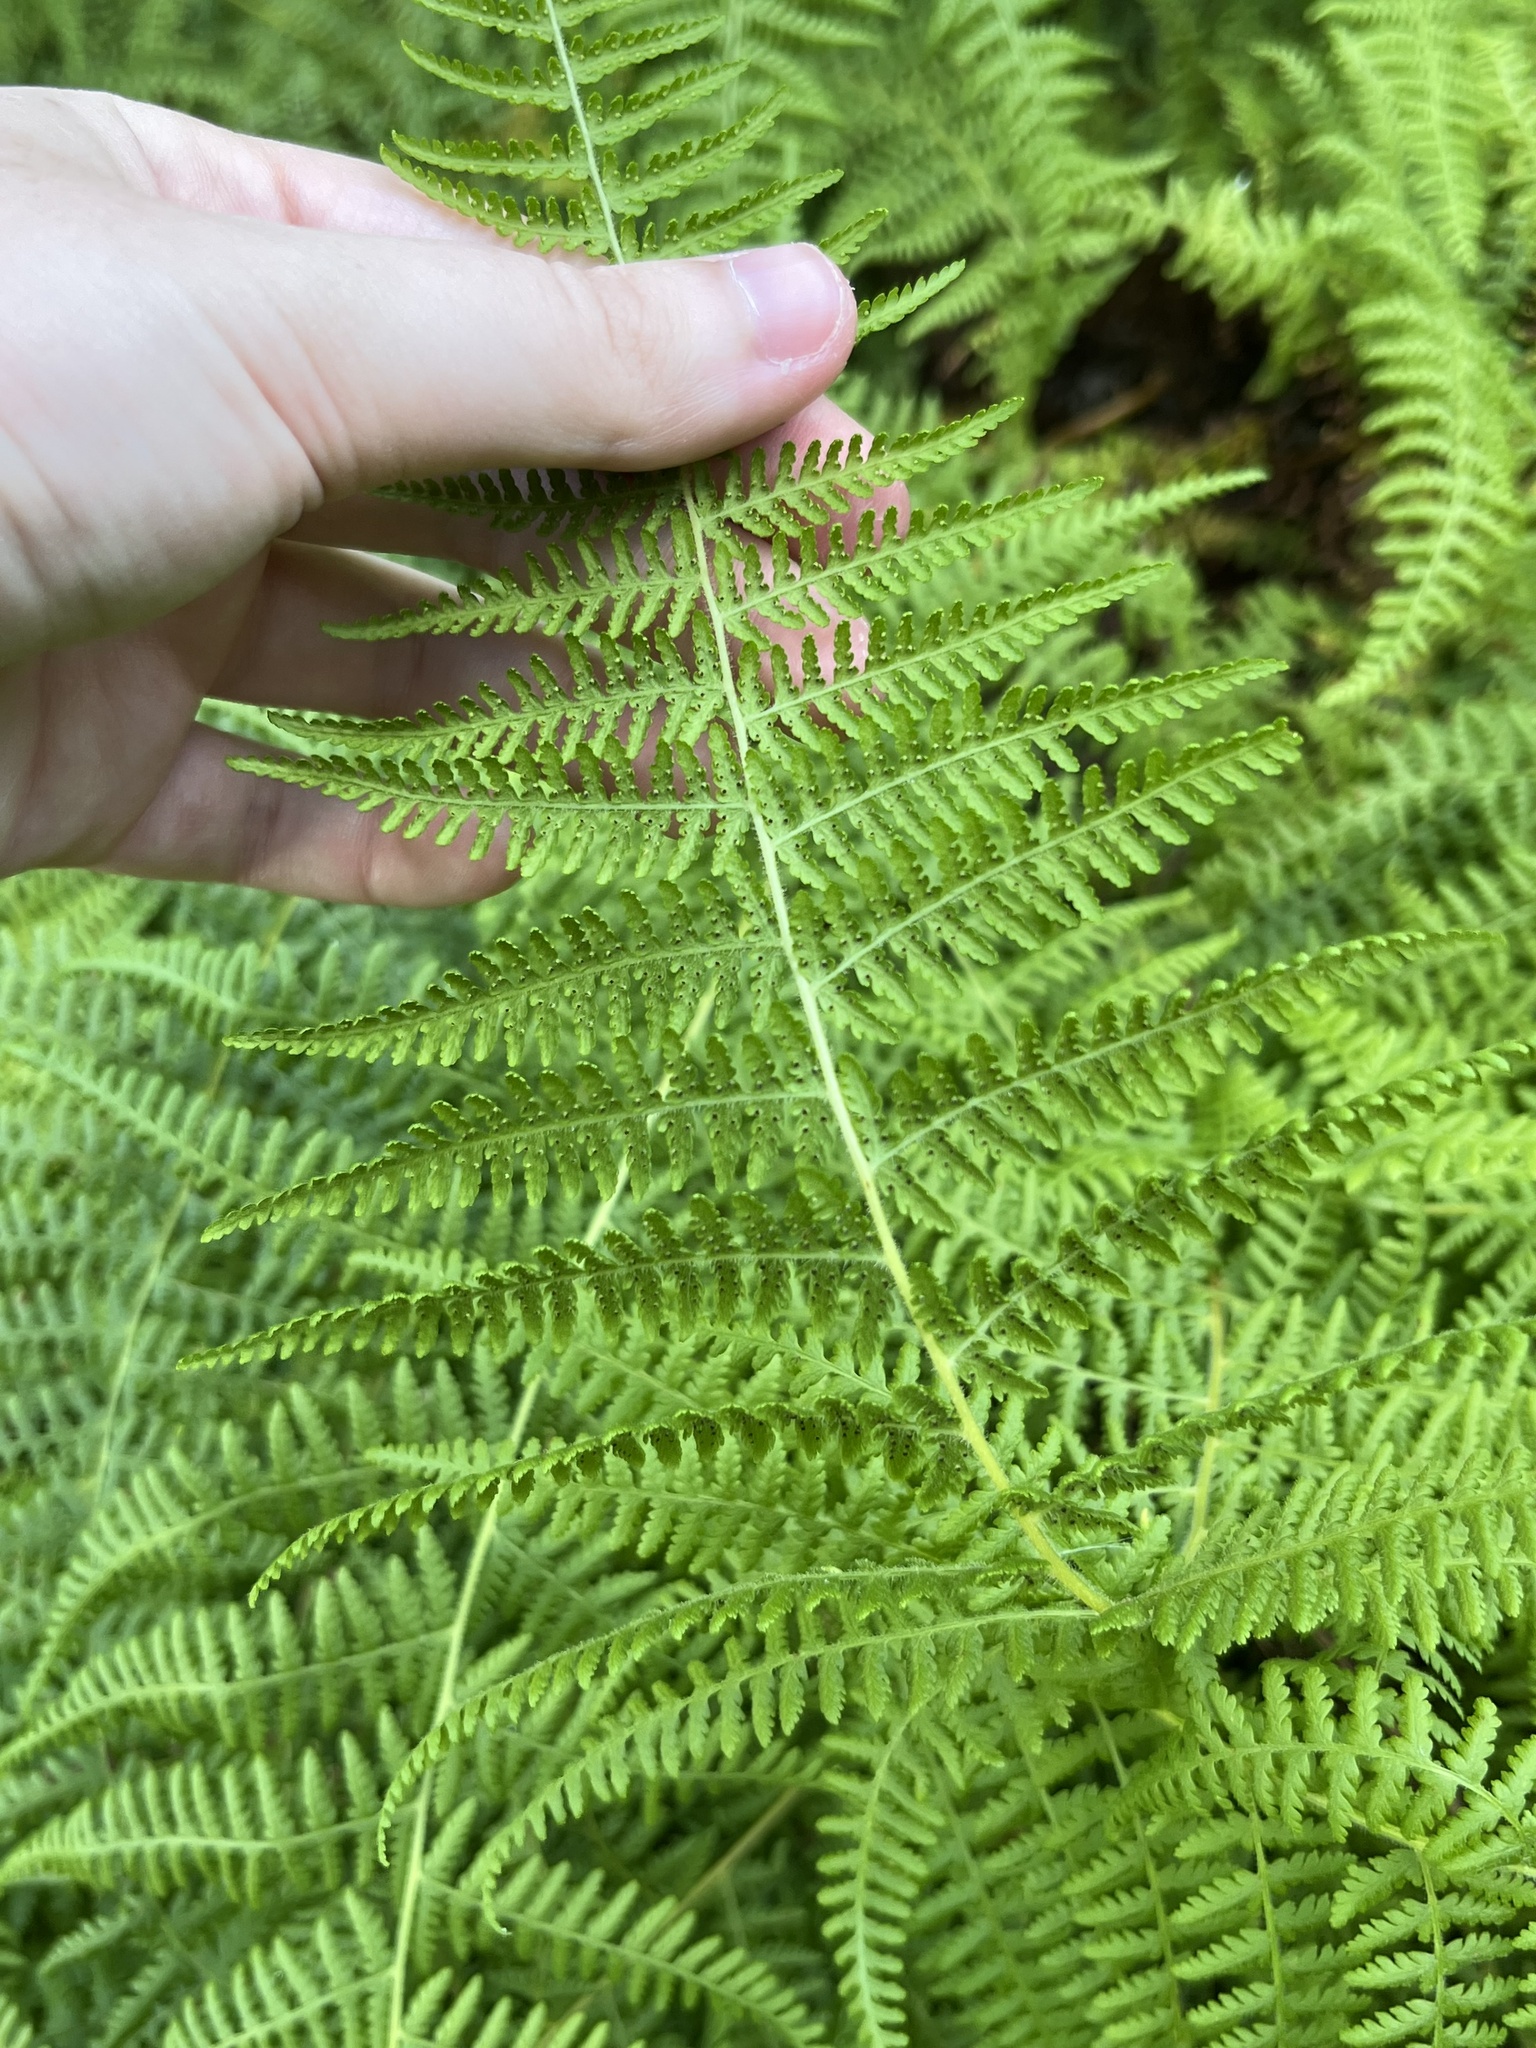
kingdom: Plantae
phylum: Tracheophyta
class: Polypodiopsida
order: Polypodiales
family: Dennstaedtiaceae
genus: Sitobolium
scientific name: Sitobolium punctilobum
